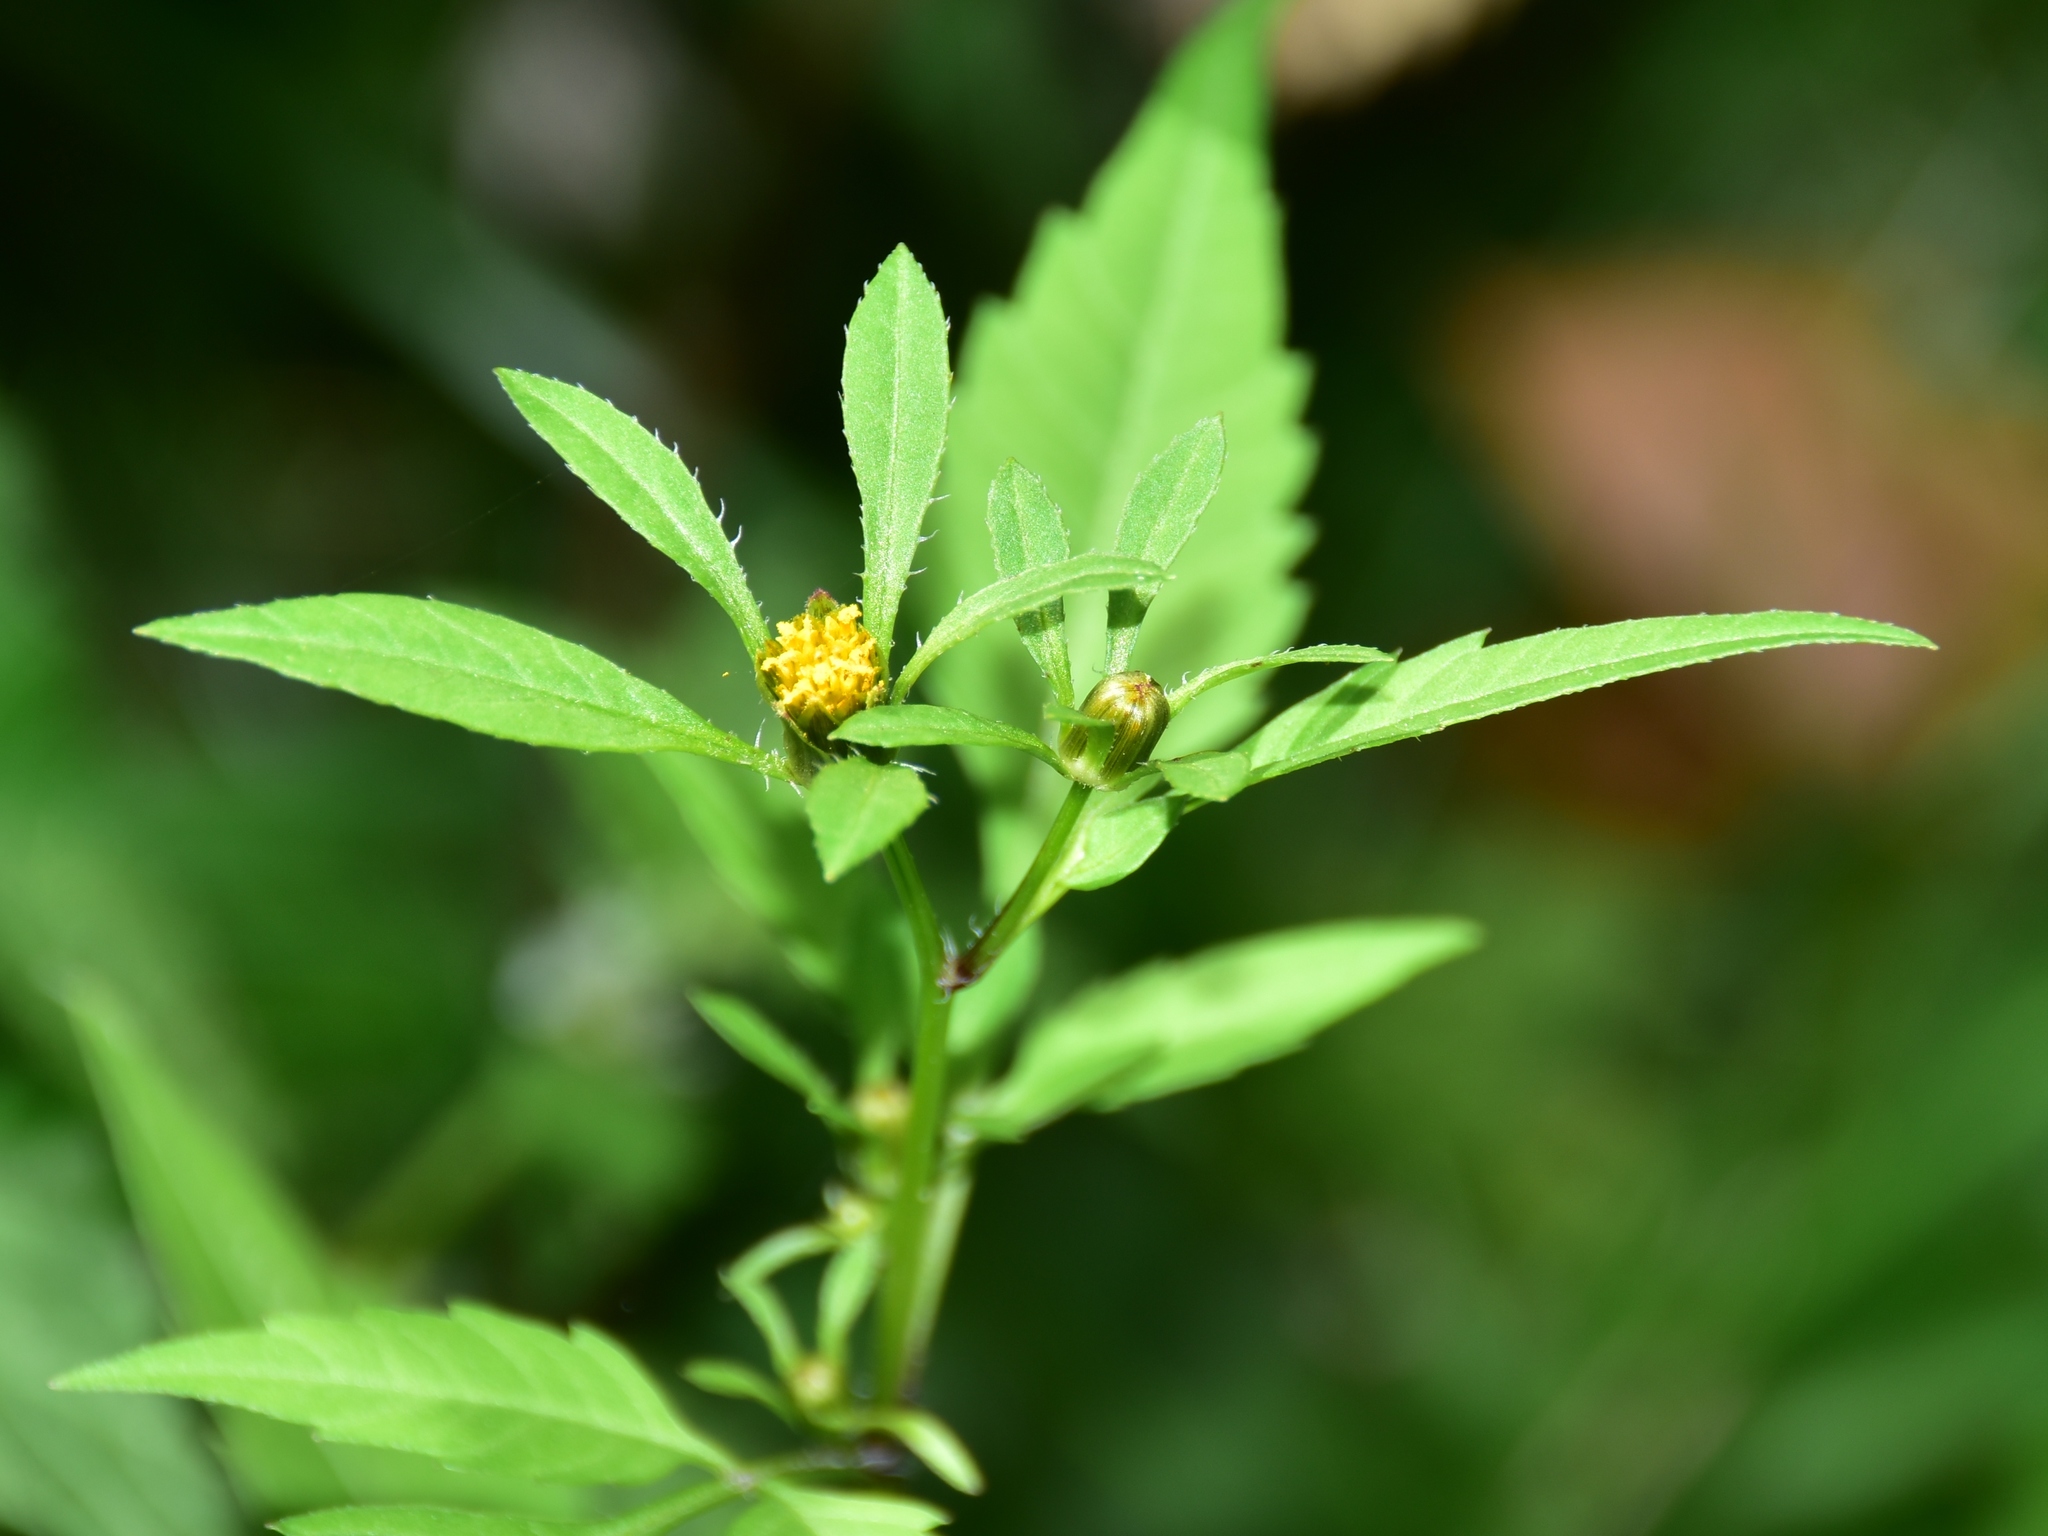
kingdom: Plantae
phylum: Tracheophyta
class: Magnoliopsida
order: Asterales
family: Asteraceae
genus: Bidens
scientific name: Bidens frondosa
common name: Beggarticks
